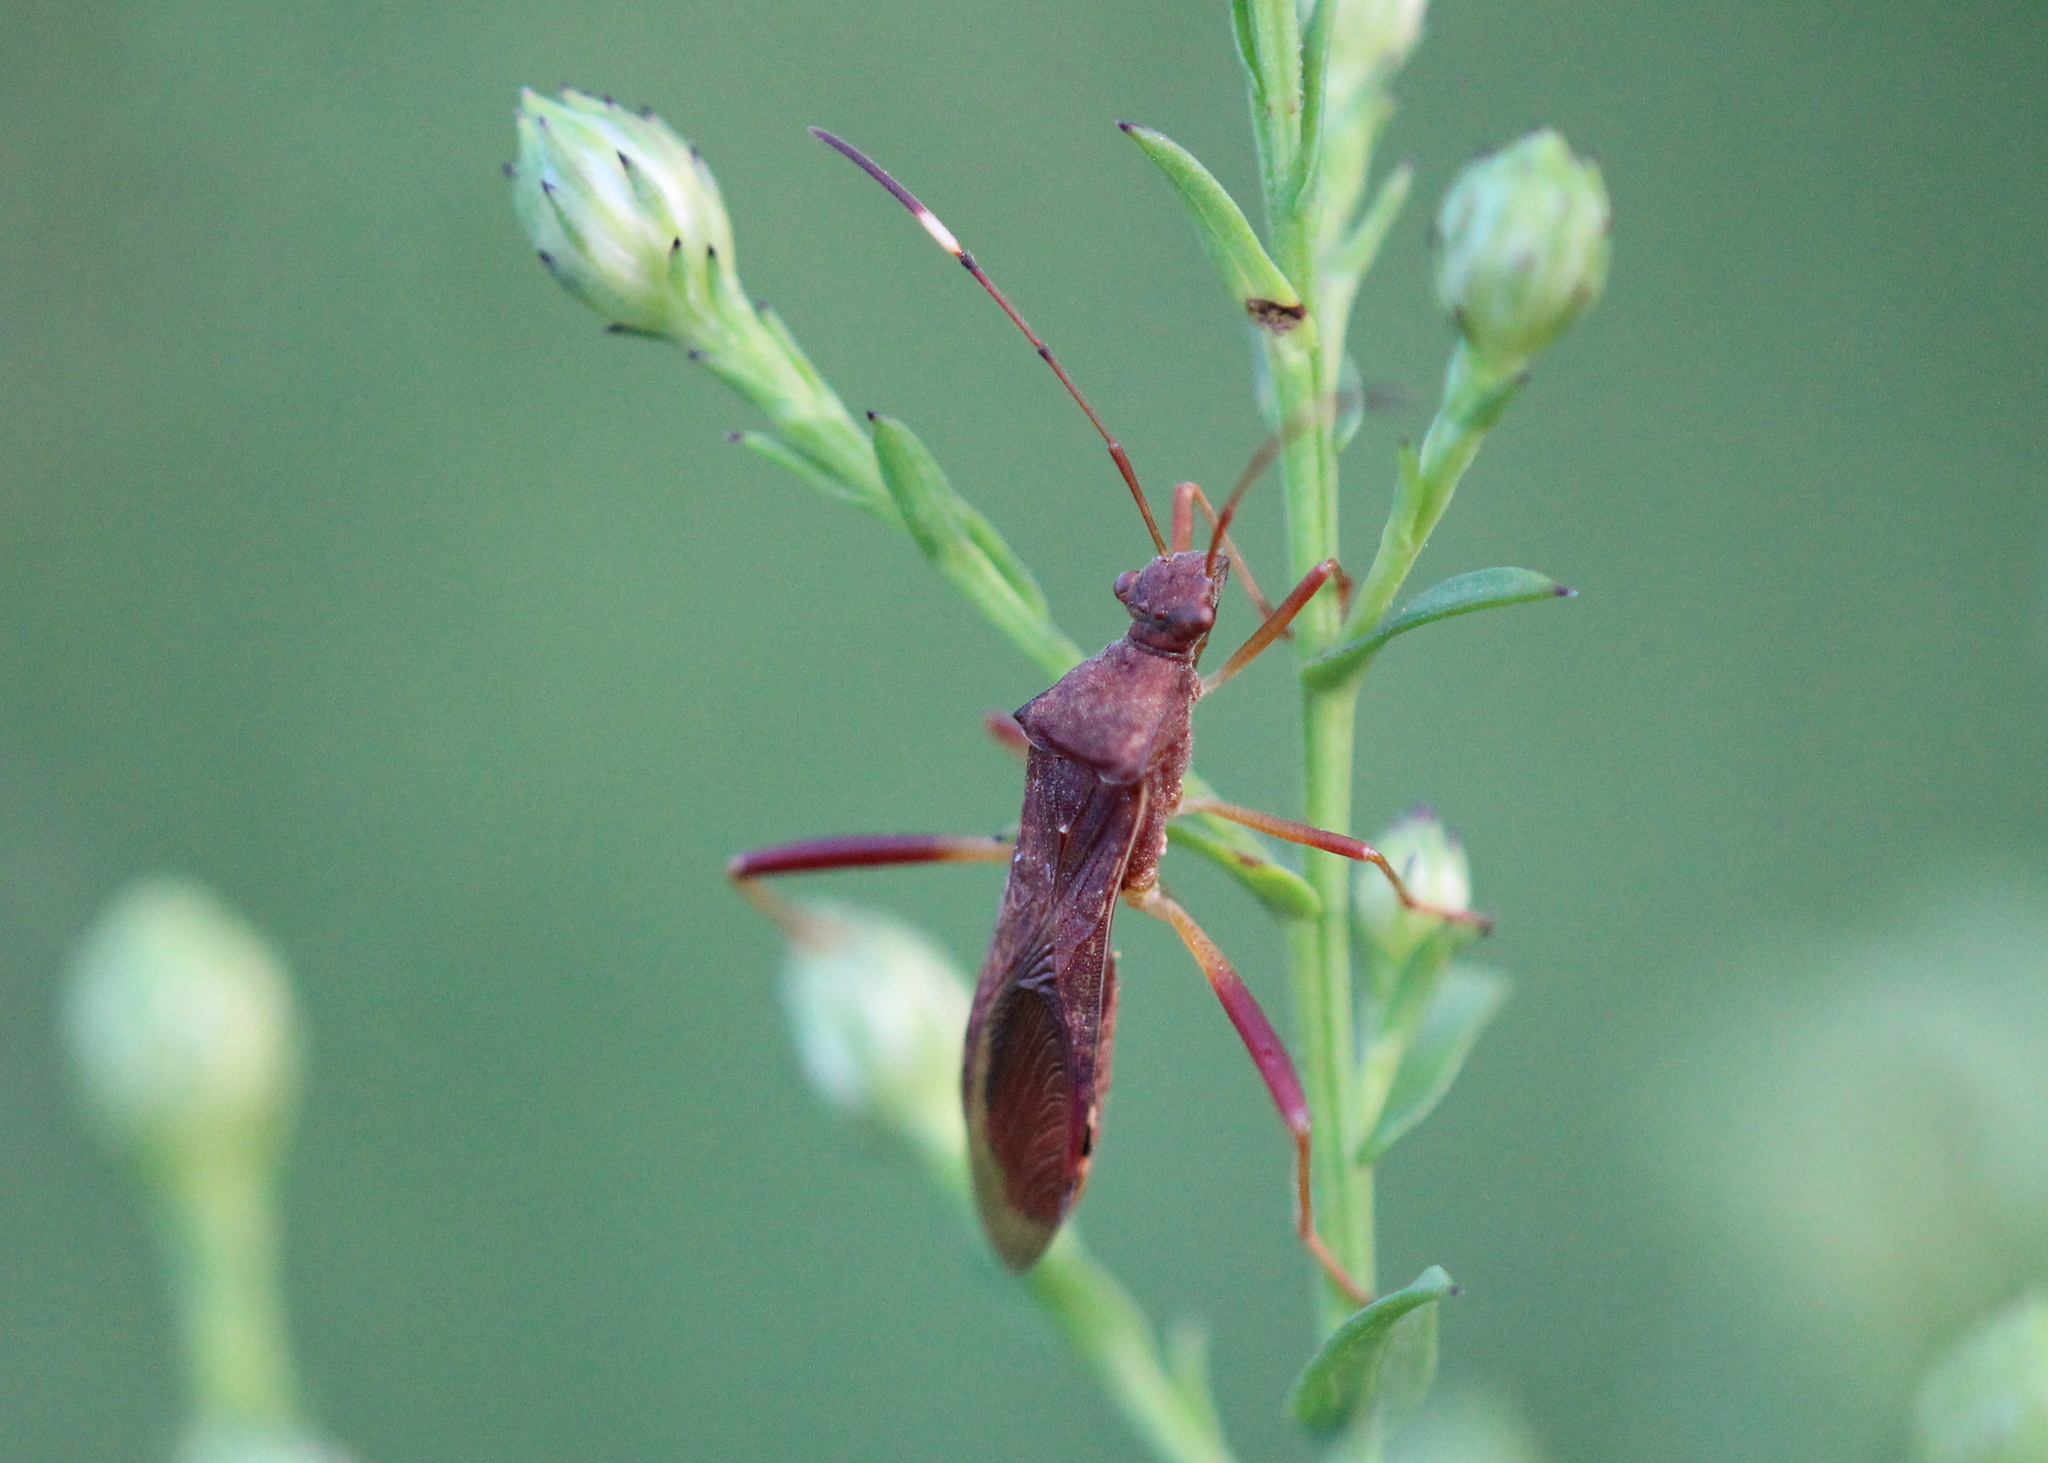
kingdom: Animalia
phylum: Arthropoda
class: Insecta
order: Hemiptera
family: Alydidae
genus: Megalotomus
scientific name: Megalotomus quinquespinosus
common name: Lupine bug
